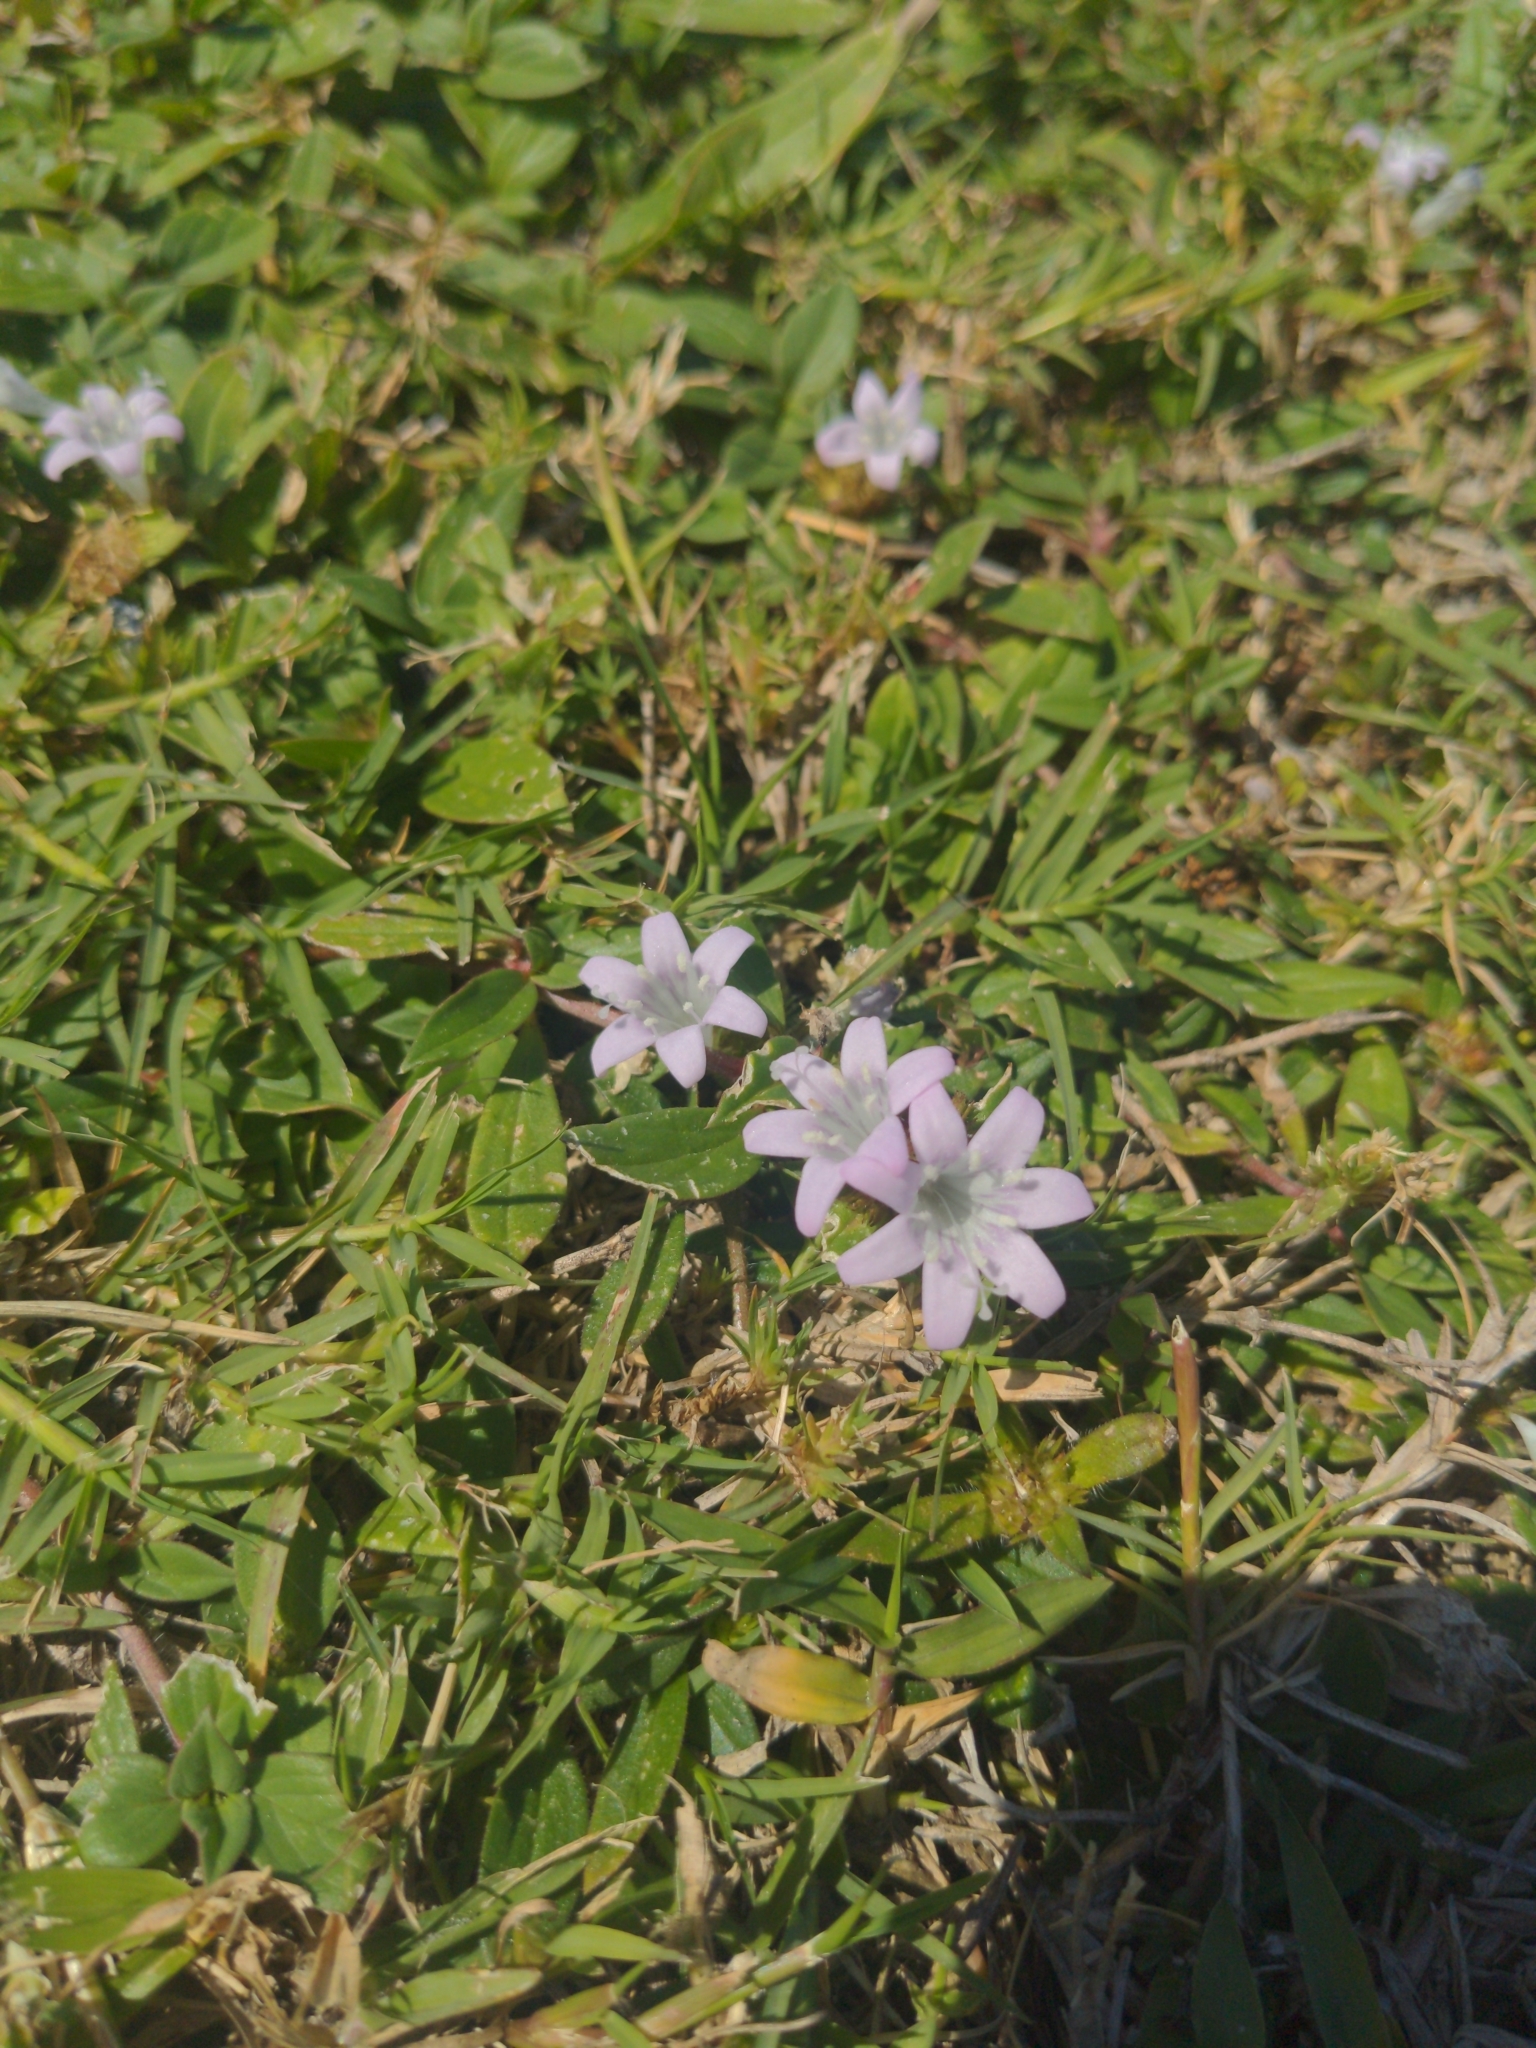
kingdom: Plantae
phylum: Tracheophyta
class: Magnoliopsida
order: Gentianales
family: Rubiaceae
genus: Richardia
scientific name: Richardia grandiflora
